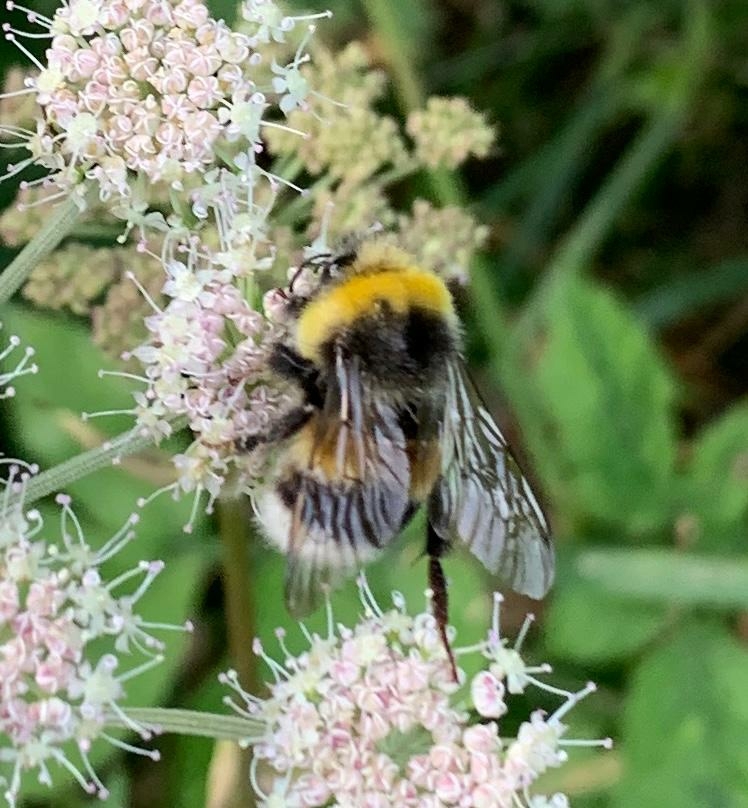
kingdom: Animalia
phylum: Arthropoda
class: Insecta
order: Hymenoptera
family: Apidae
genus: Bombus
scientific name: Bombus lucorum
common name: White-tailed bumblebee
